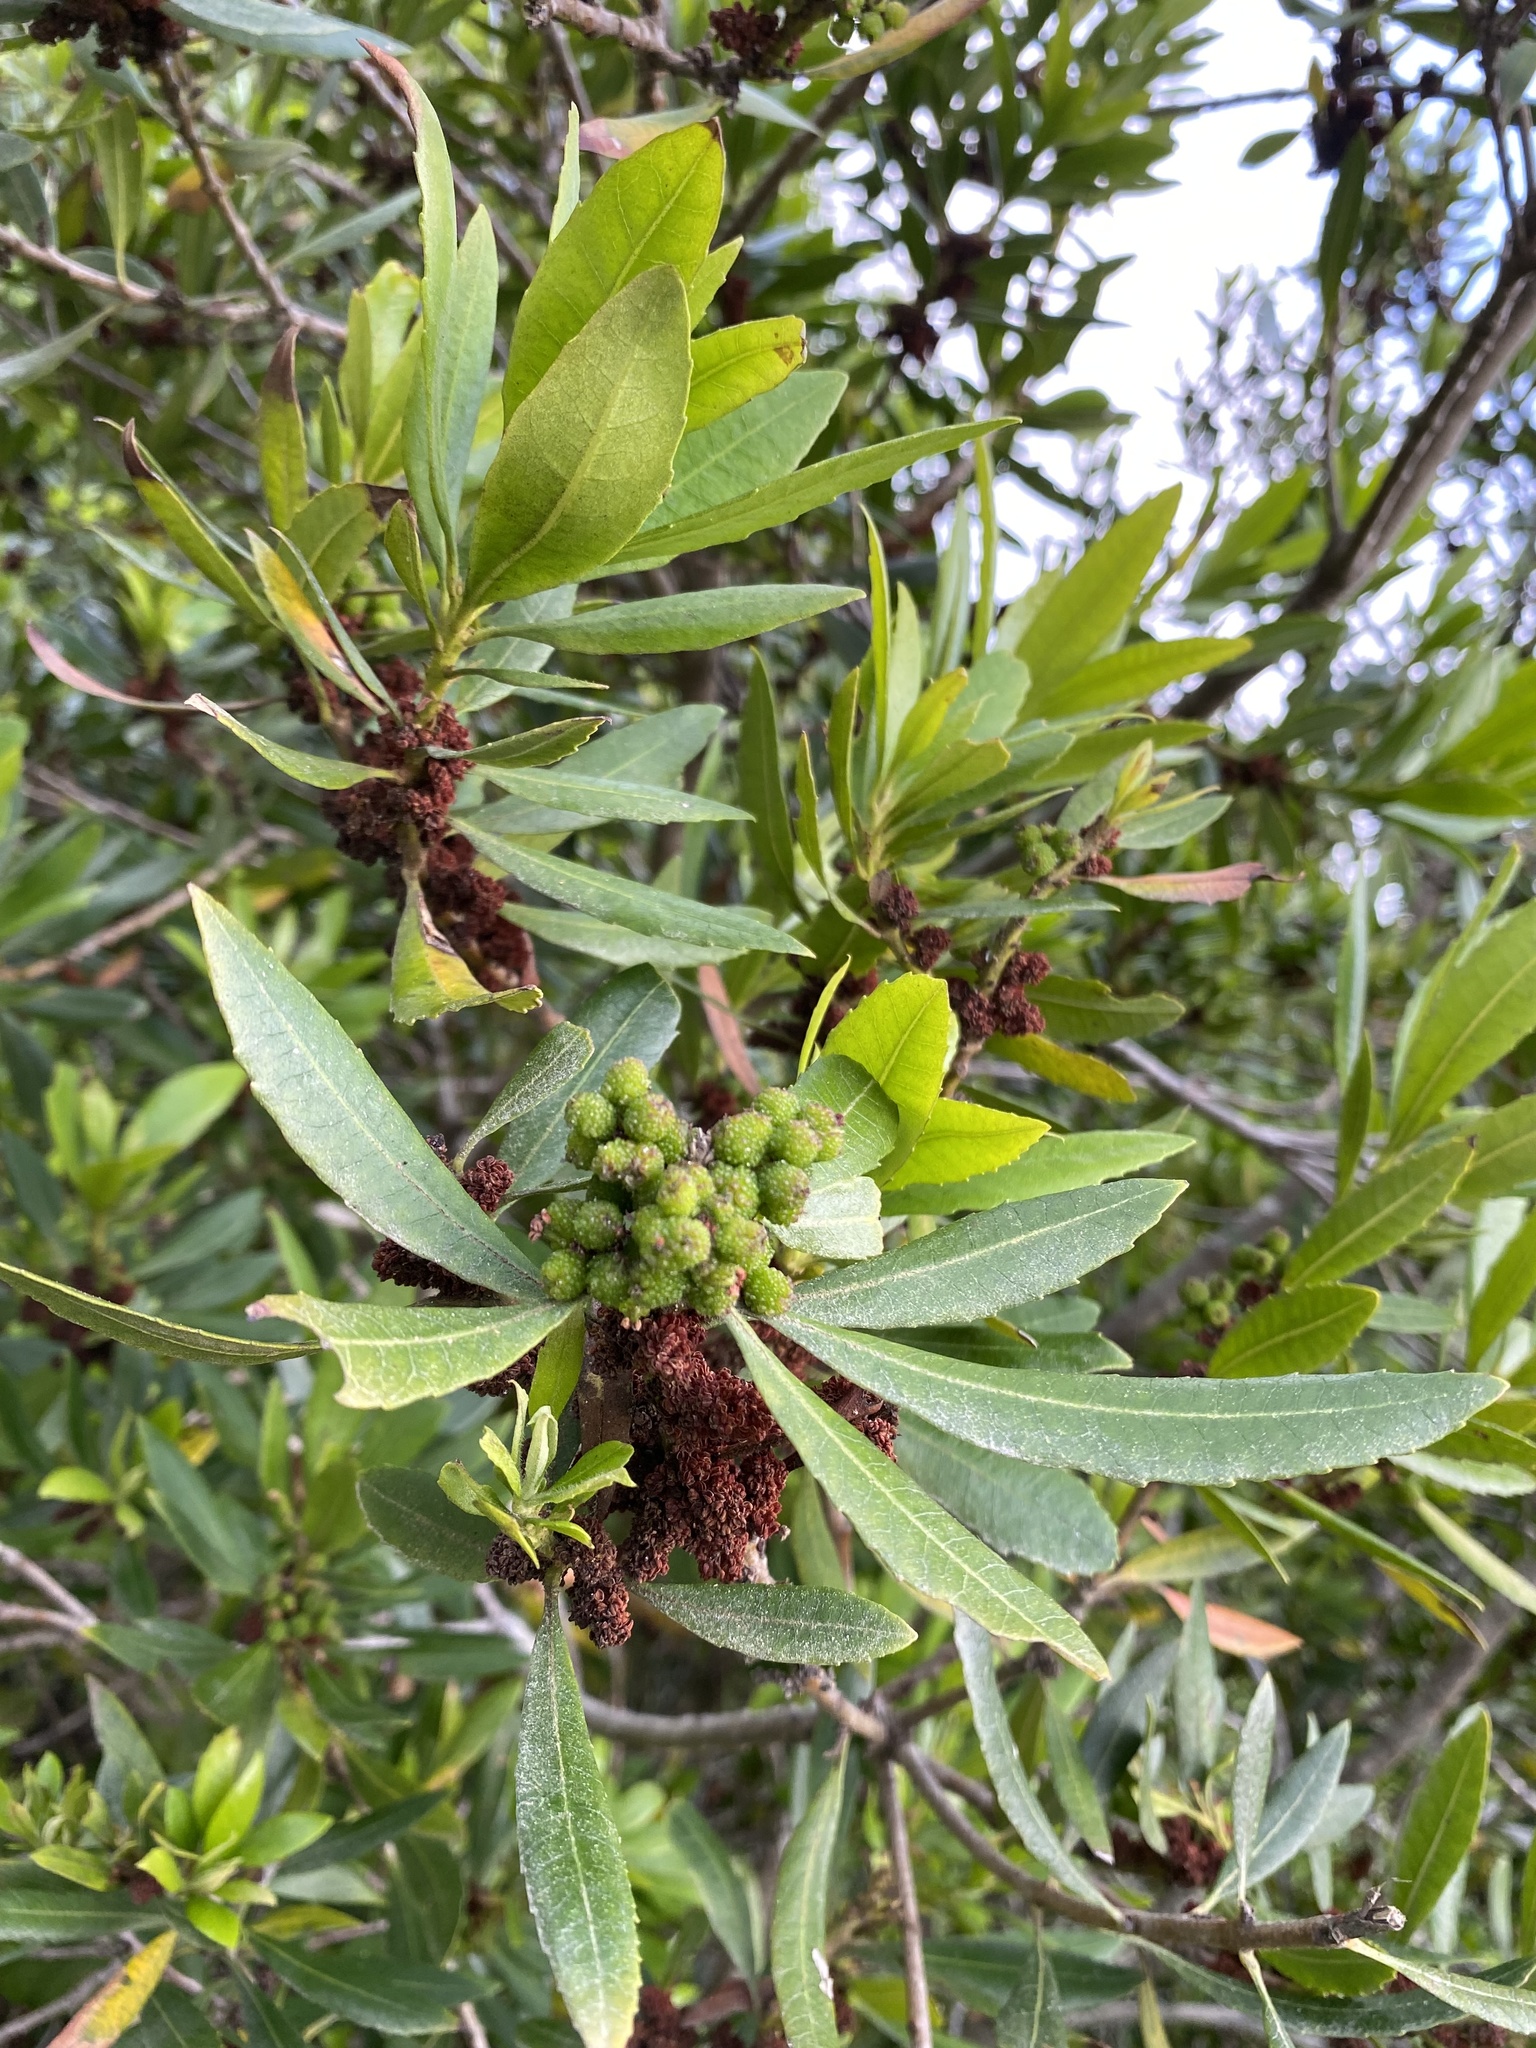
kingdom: Plantae
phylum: Tracheophyta
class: Magnoliopsida
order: Fagales
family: Myricaceae
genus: Morella
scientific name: Morella californica
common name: California wax-myrtle
